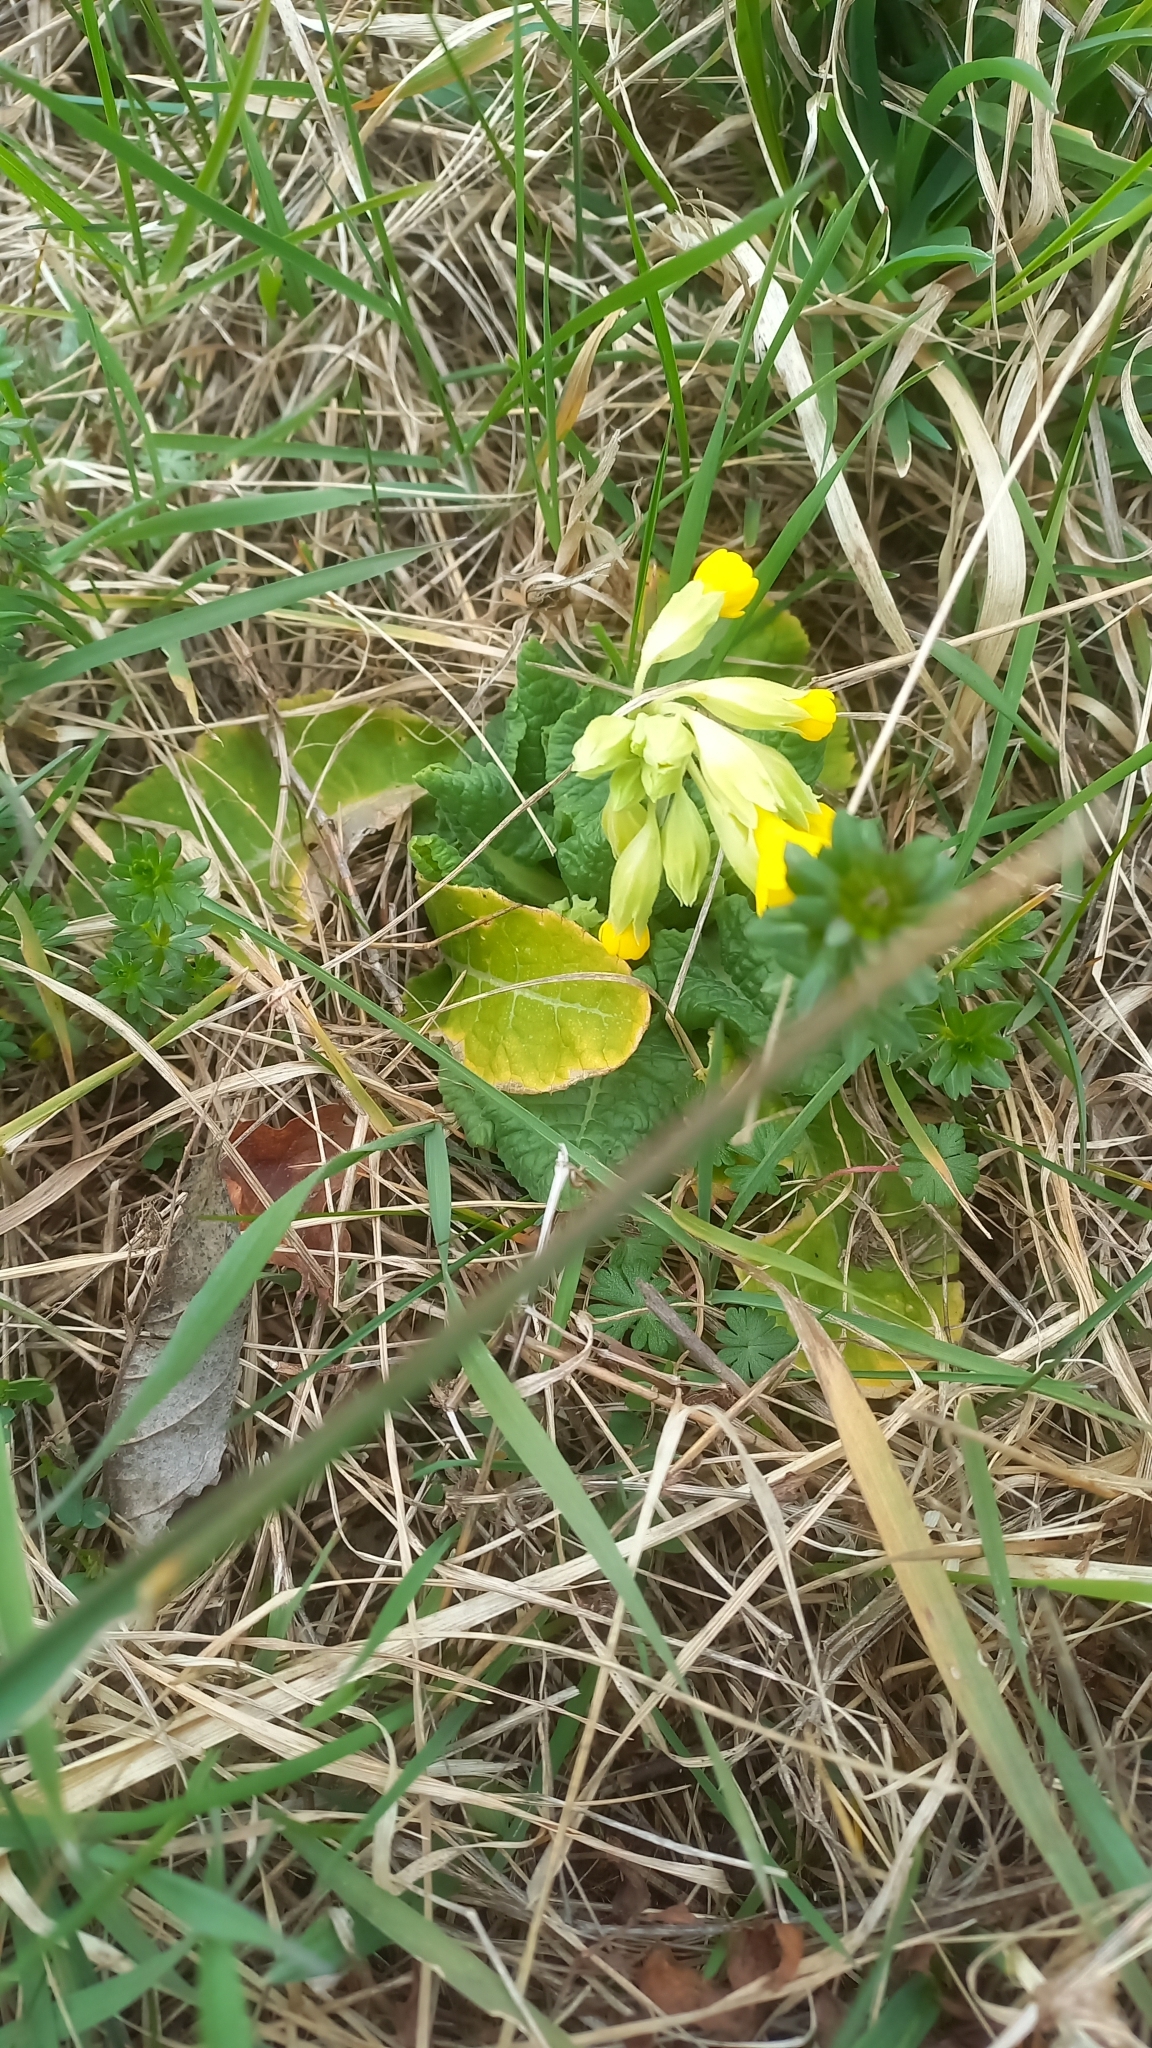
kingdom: Plantae
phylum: Tracheophyta
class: Magnoliopsida
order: Ericales
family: Primulaceae
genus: Primula
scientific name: Primula veris
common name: Cowslip
